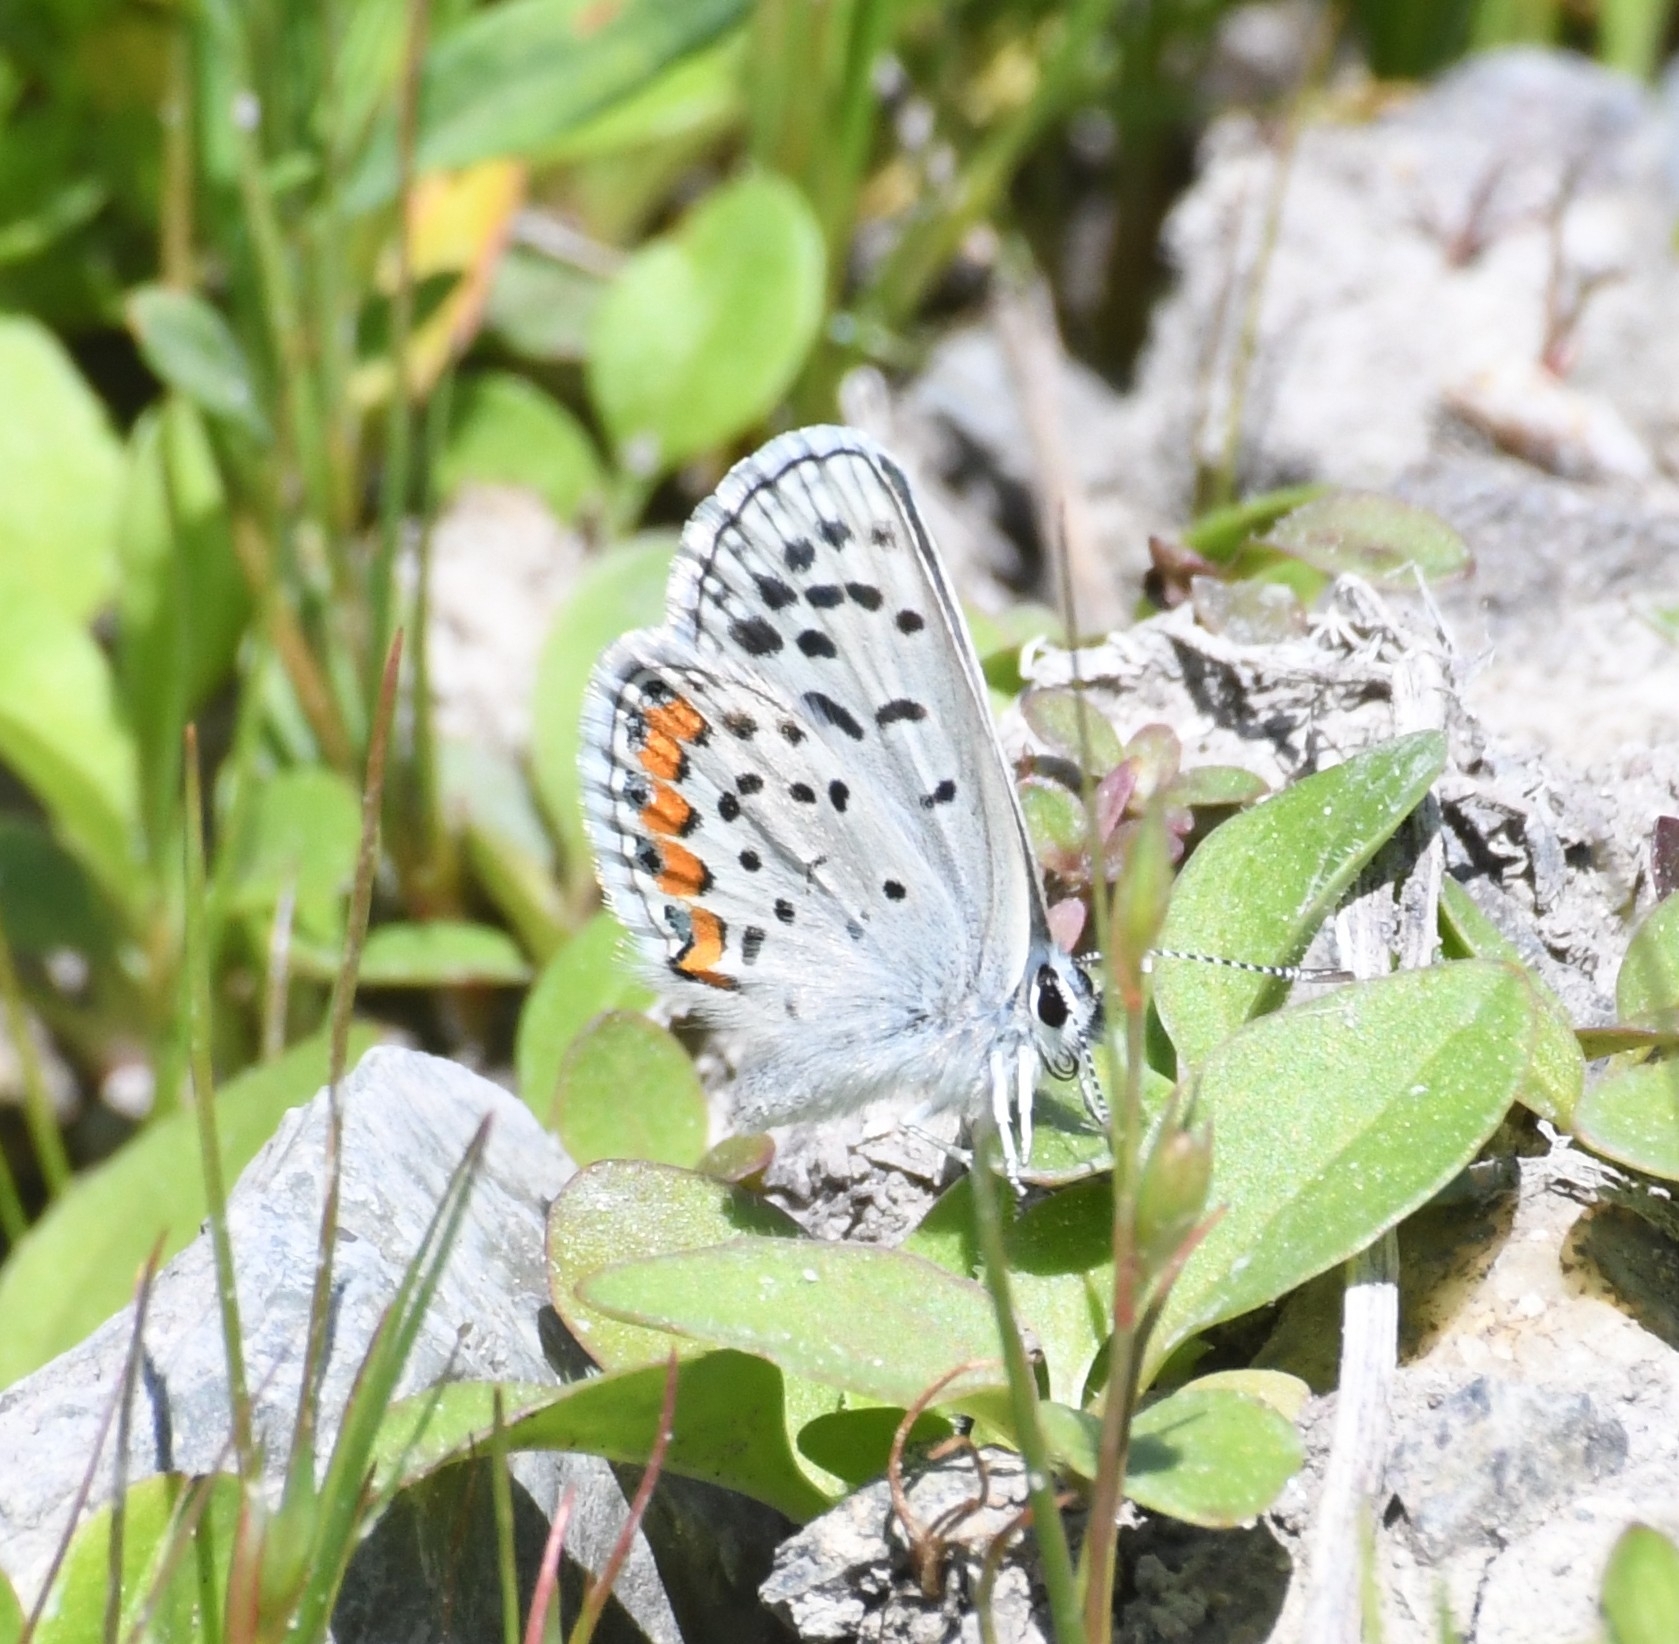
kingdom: Animalia
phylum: Arthropoda
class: Insecta
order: Lepidoptera
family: Lycaenidae
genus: Icaricia
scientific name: Icaricia lupini
